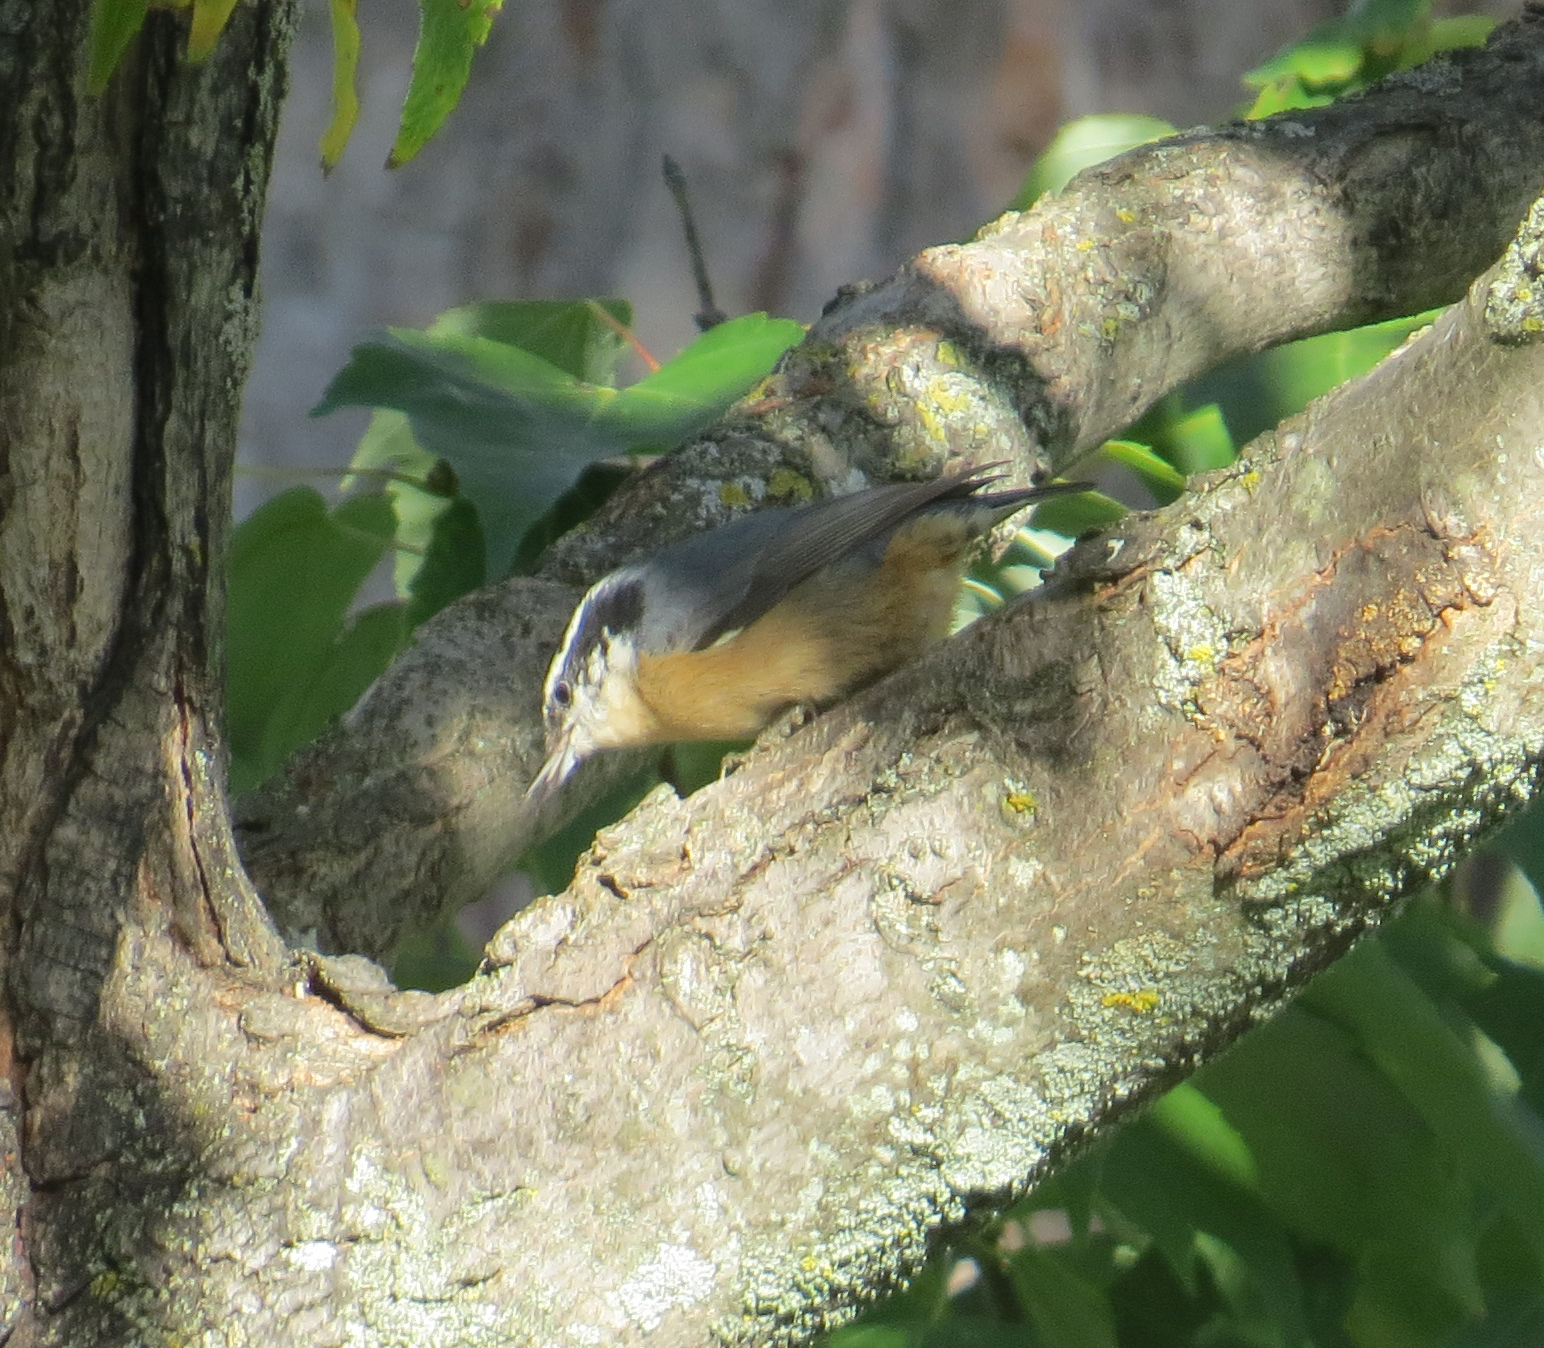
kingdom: Animalia
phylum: Chordata
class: Aves
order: Passeriformes
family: Sittidae
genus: Sitta
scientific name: Sitta canadensis
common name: Red-breasted nuthatch
